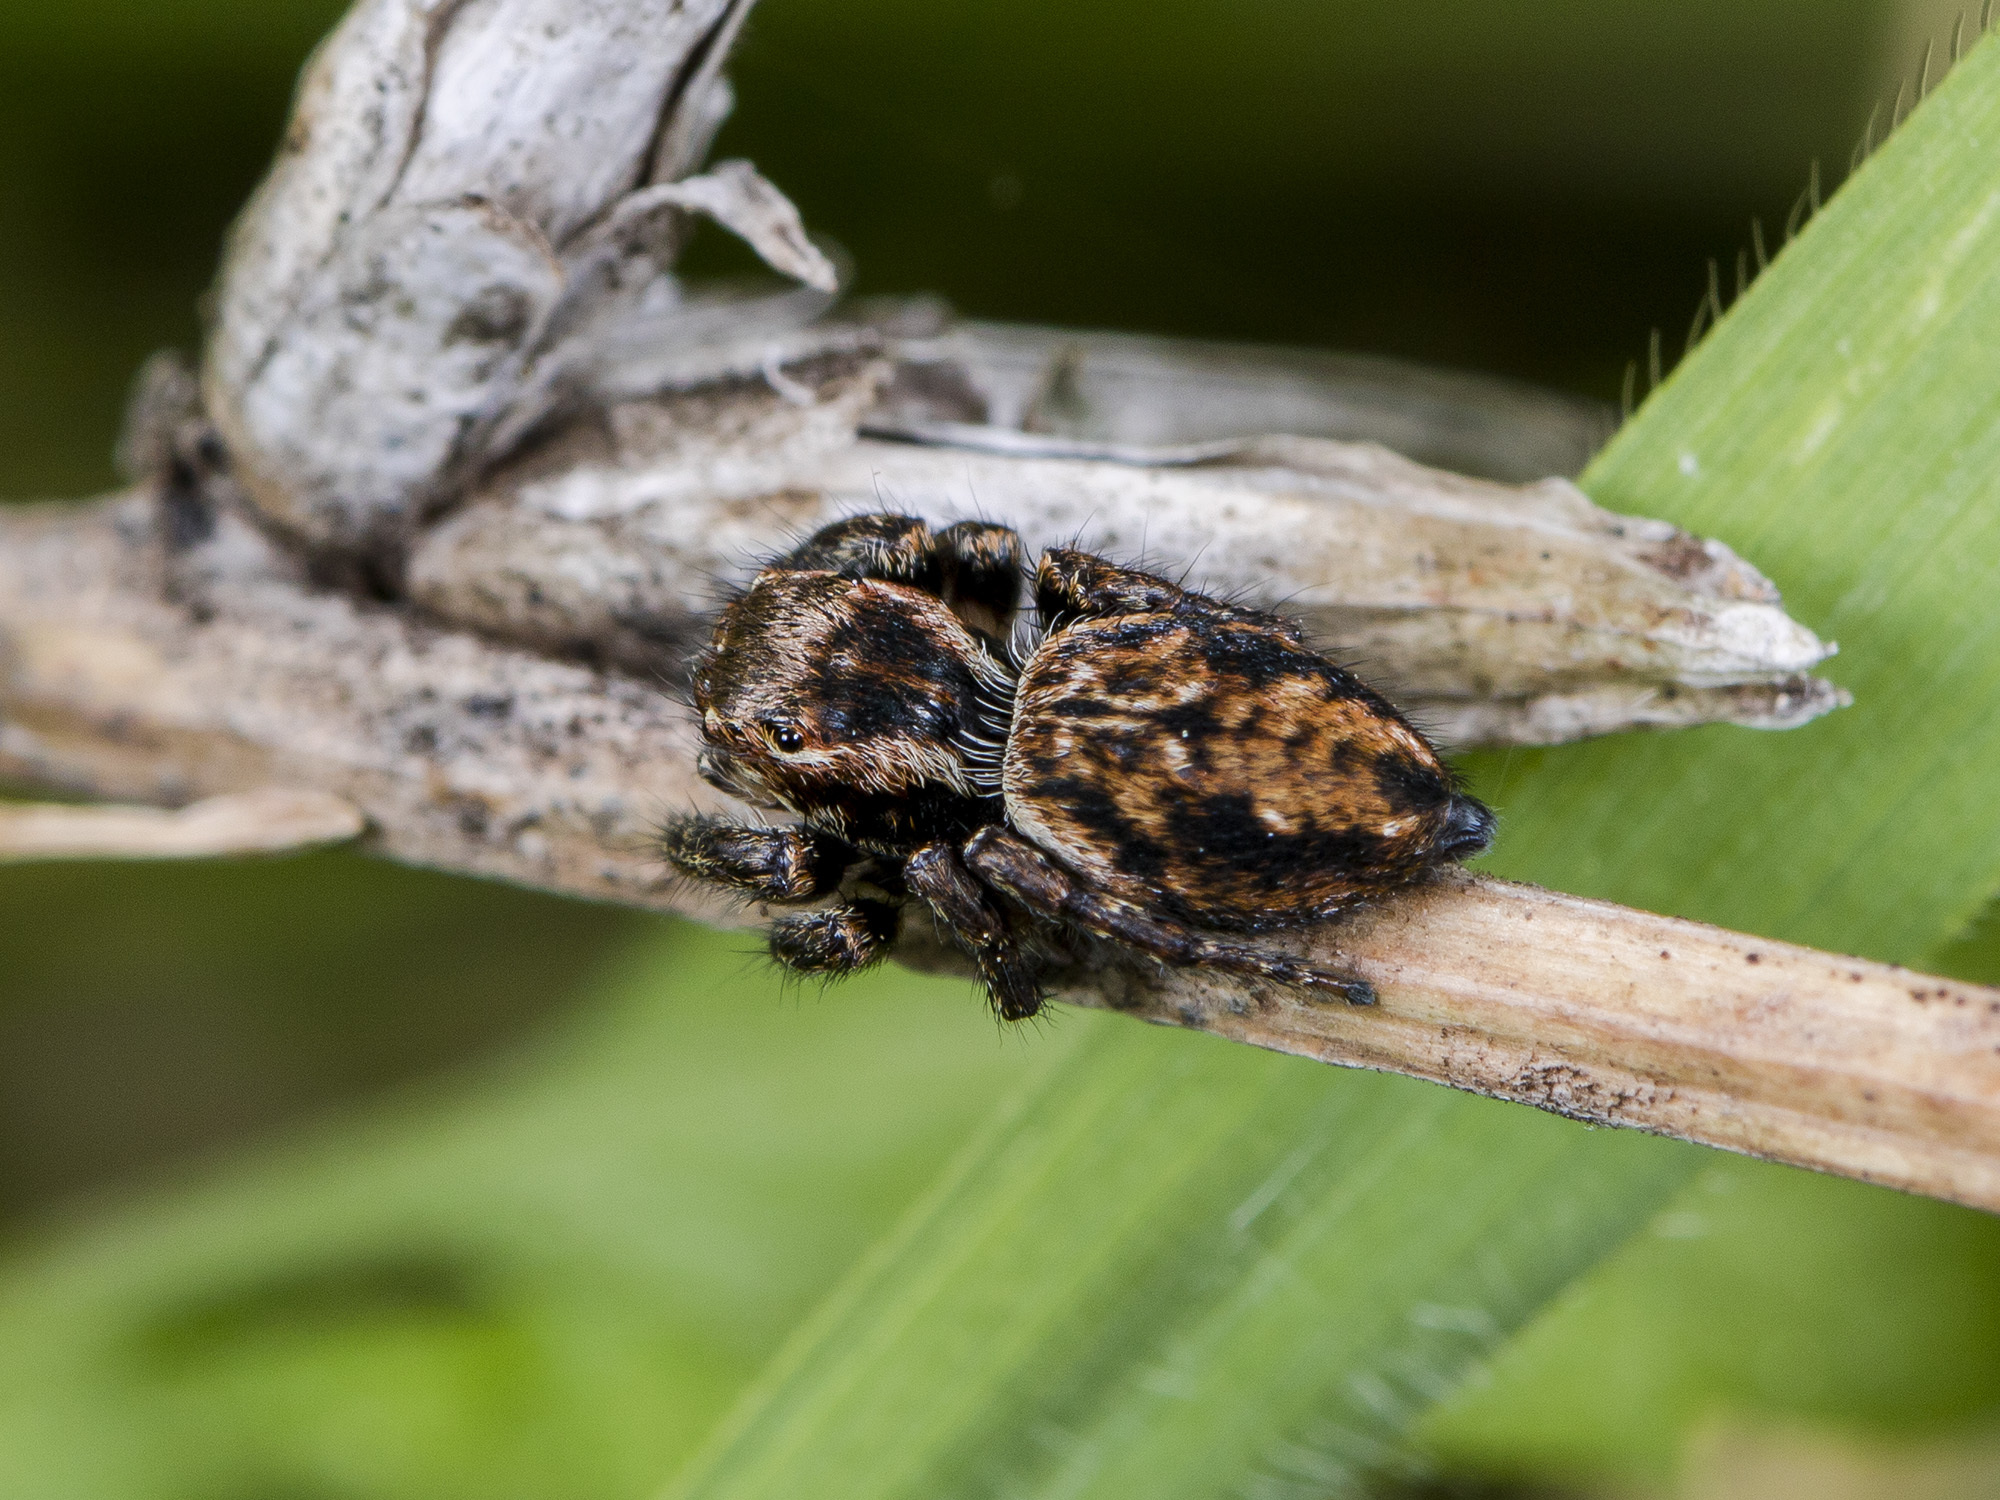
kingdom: Animalia
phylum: Arthropoda
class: Arachnida
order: Araneae
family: Salticidae
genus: Evarcha
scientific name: Evarcha michailovi
